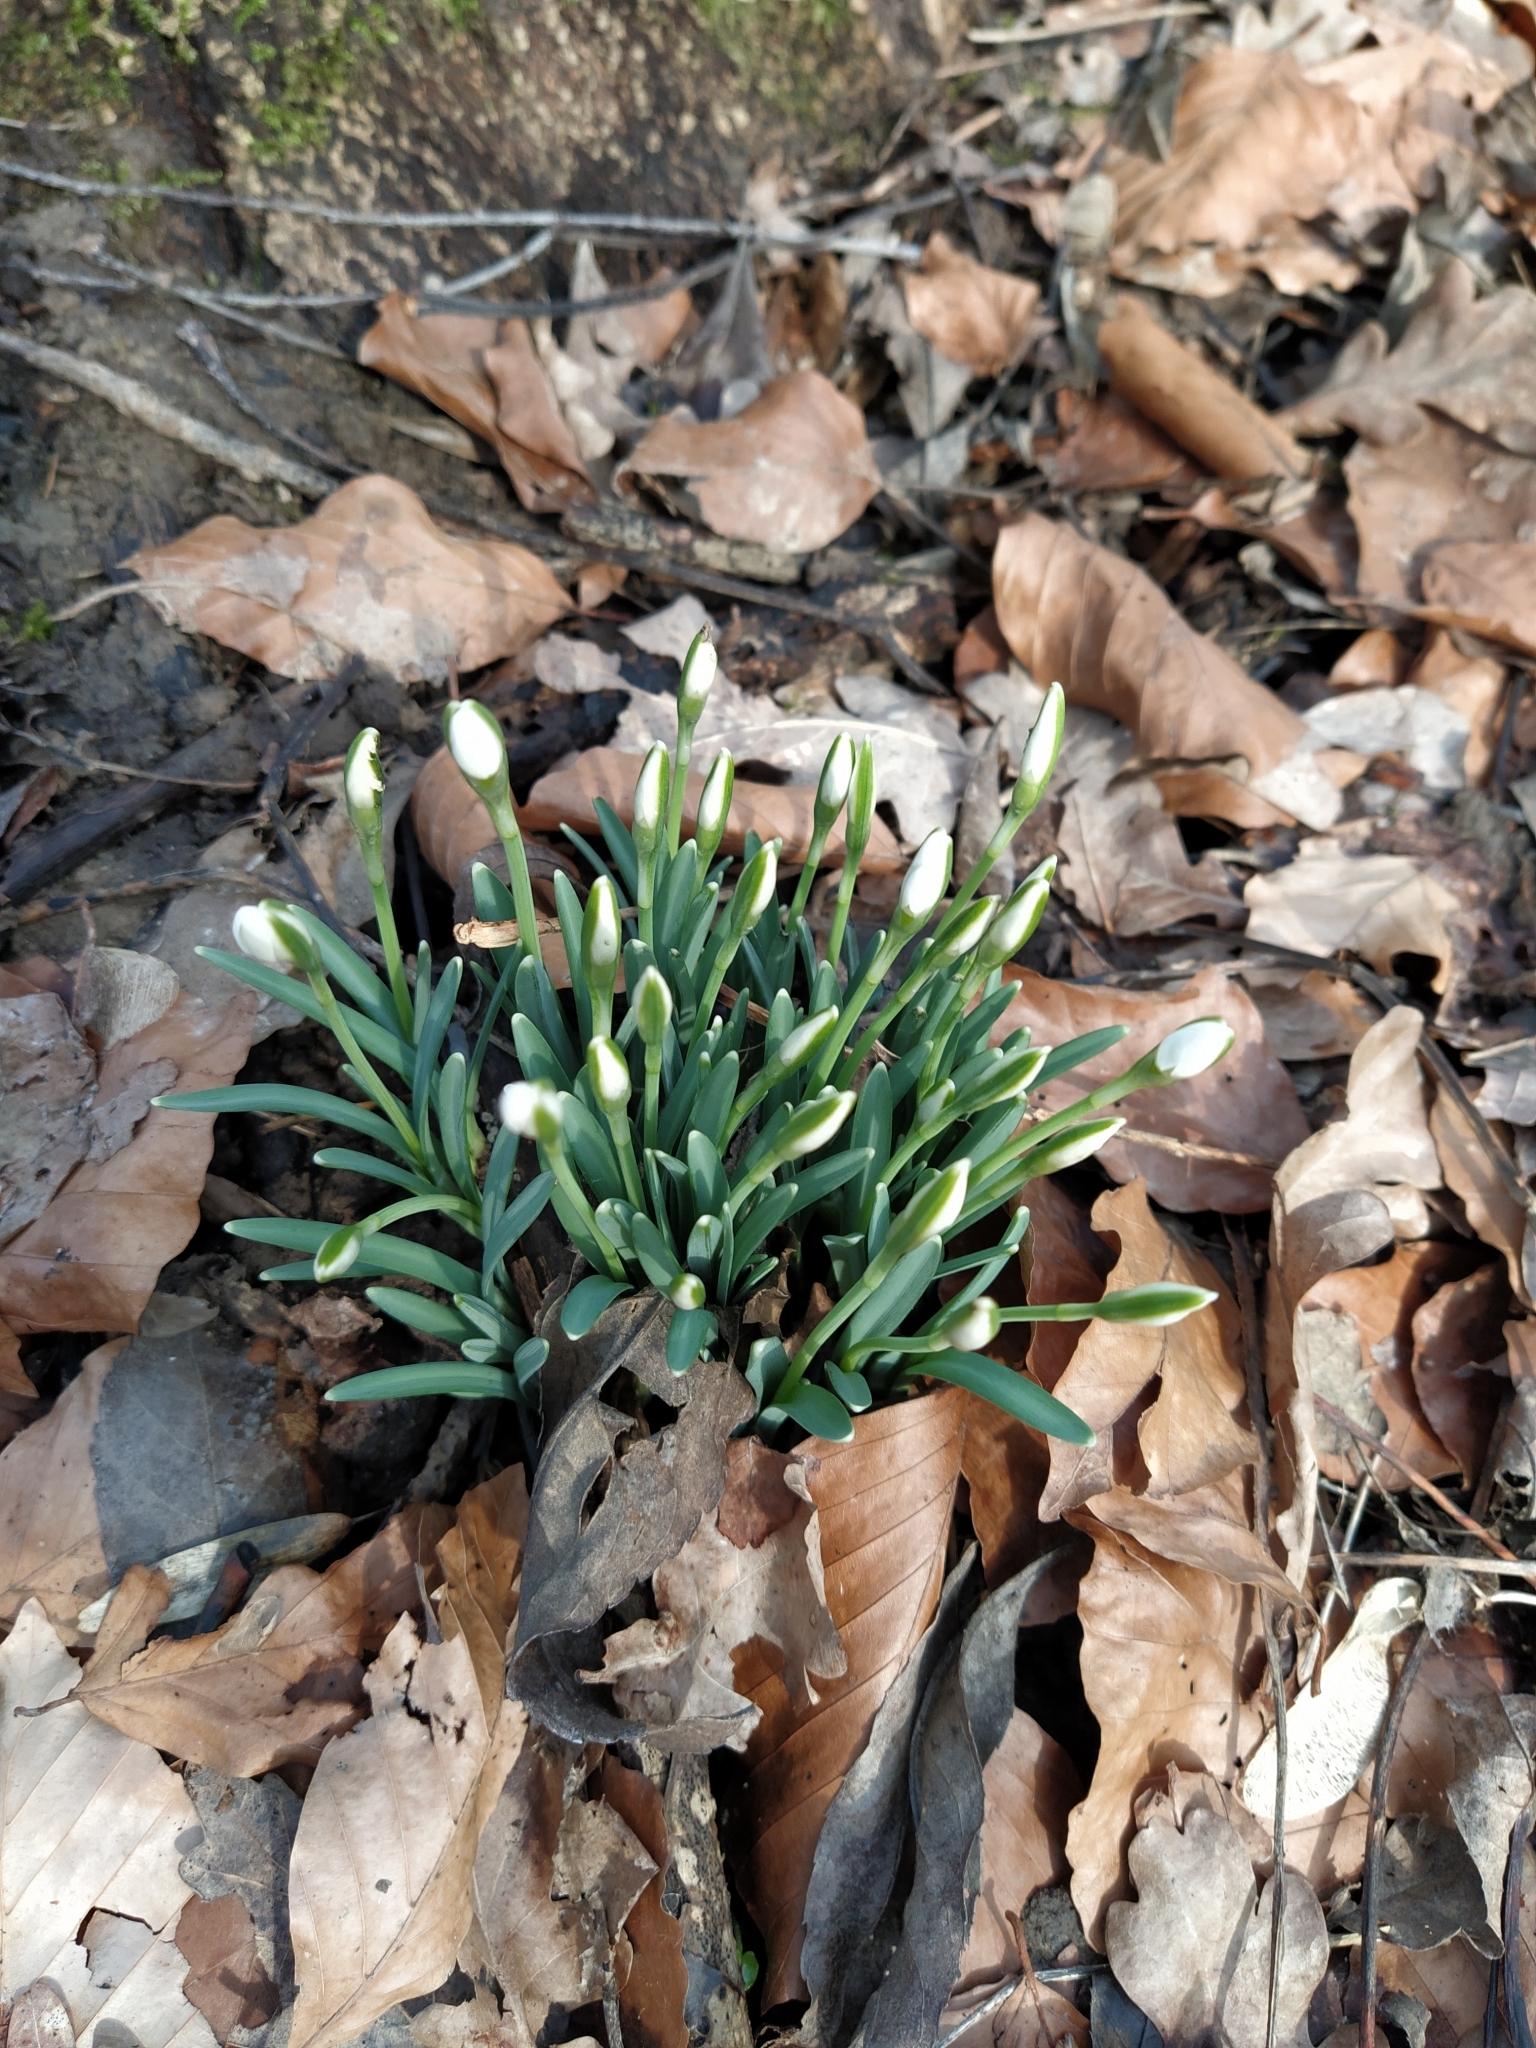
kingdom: Plantae
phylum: Tracheophyta
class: Liliopsida
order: Asparagales
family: Amaryllidaceae
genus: Galanthus
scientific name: Galanthus nivalis
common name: Snowdrop
